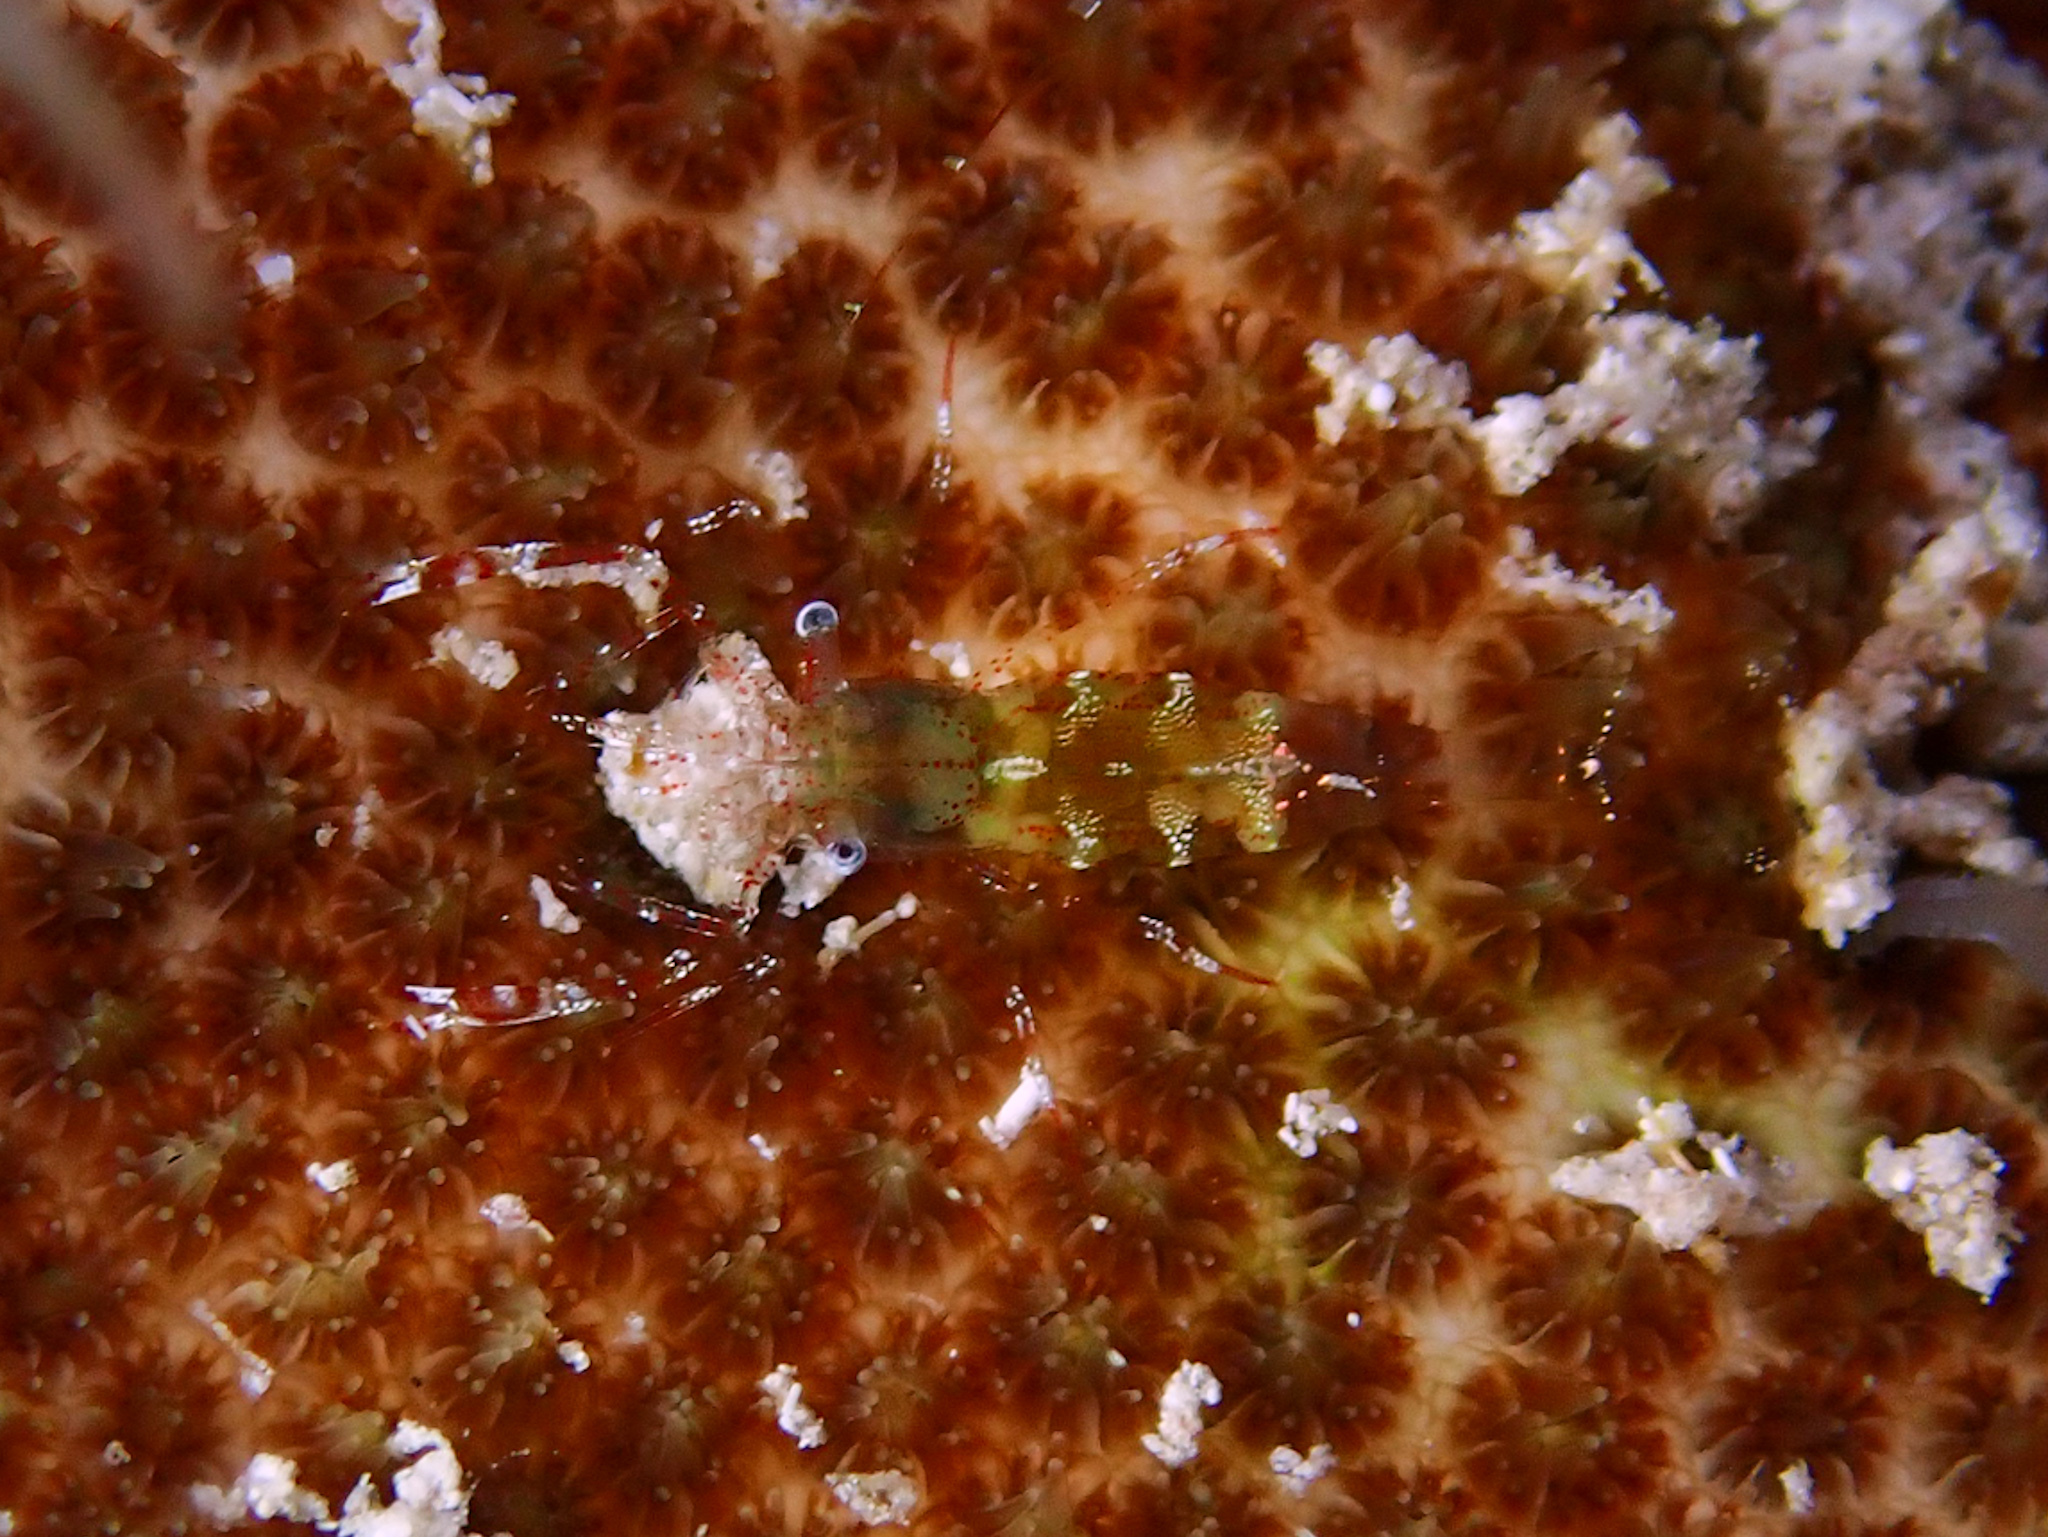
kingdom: Animalia
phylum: Arthropoda
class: Malacostraca
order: Decapoda
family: Palaemonidae
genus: Periclimenes
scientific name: Periclimenes rathbunae
